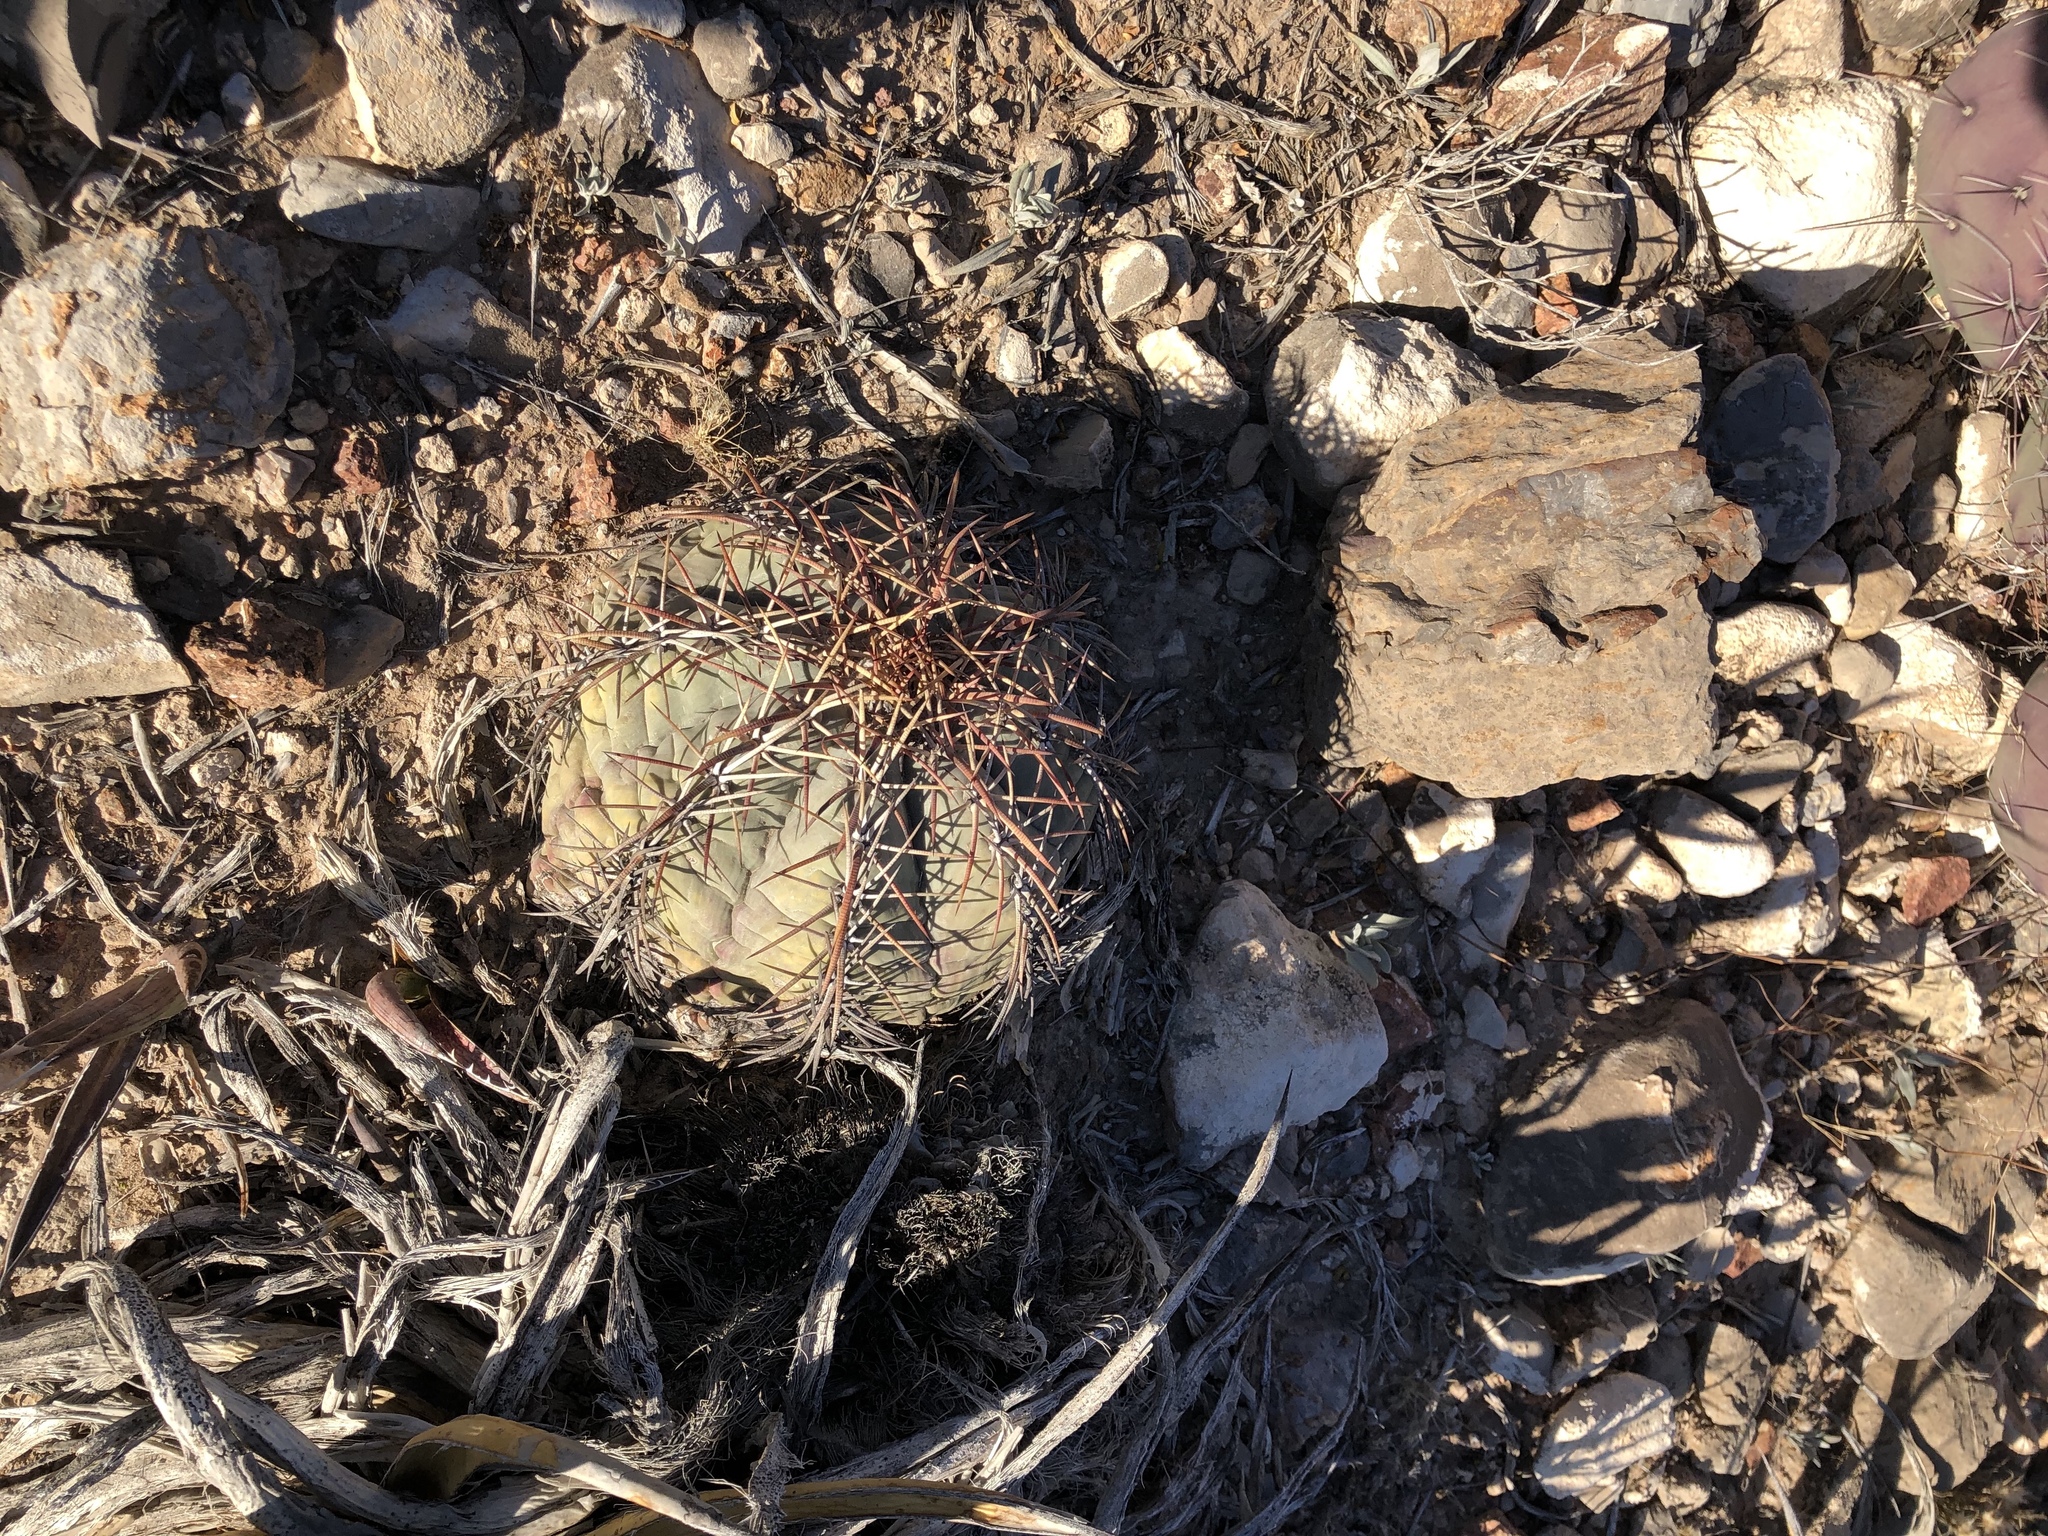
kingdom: Plantae
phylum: Tracheophyta
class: Magnoliopsida
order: Caryophyllales
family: Cactaceae
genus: Echinocactus
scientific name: Echinocactus horizonthalonius
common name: Devilshead
